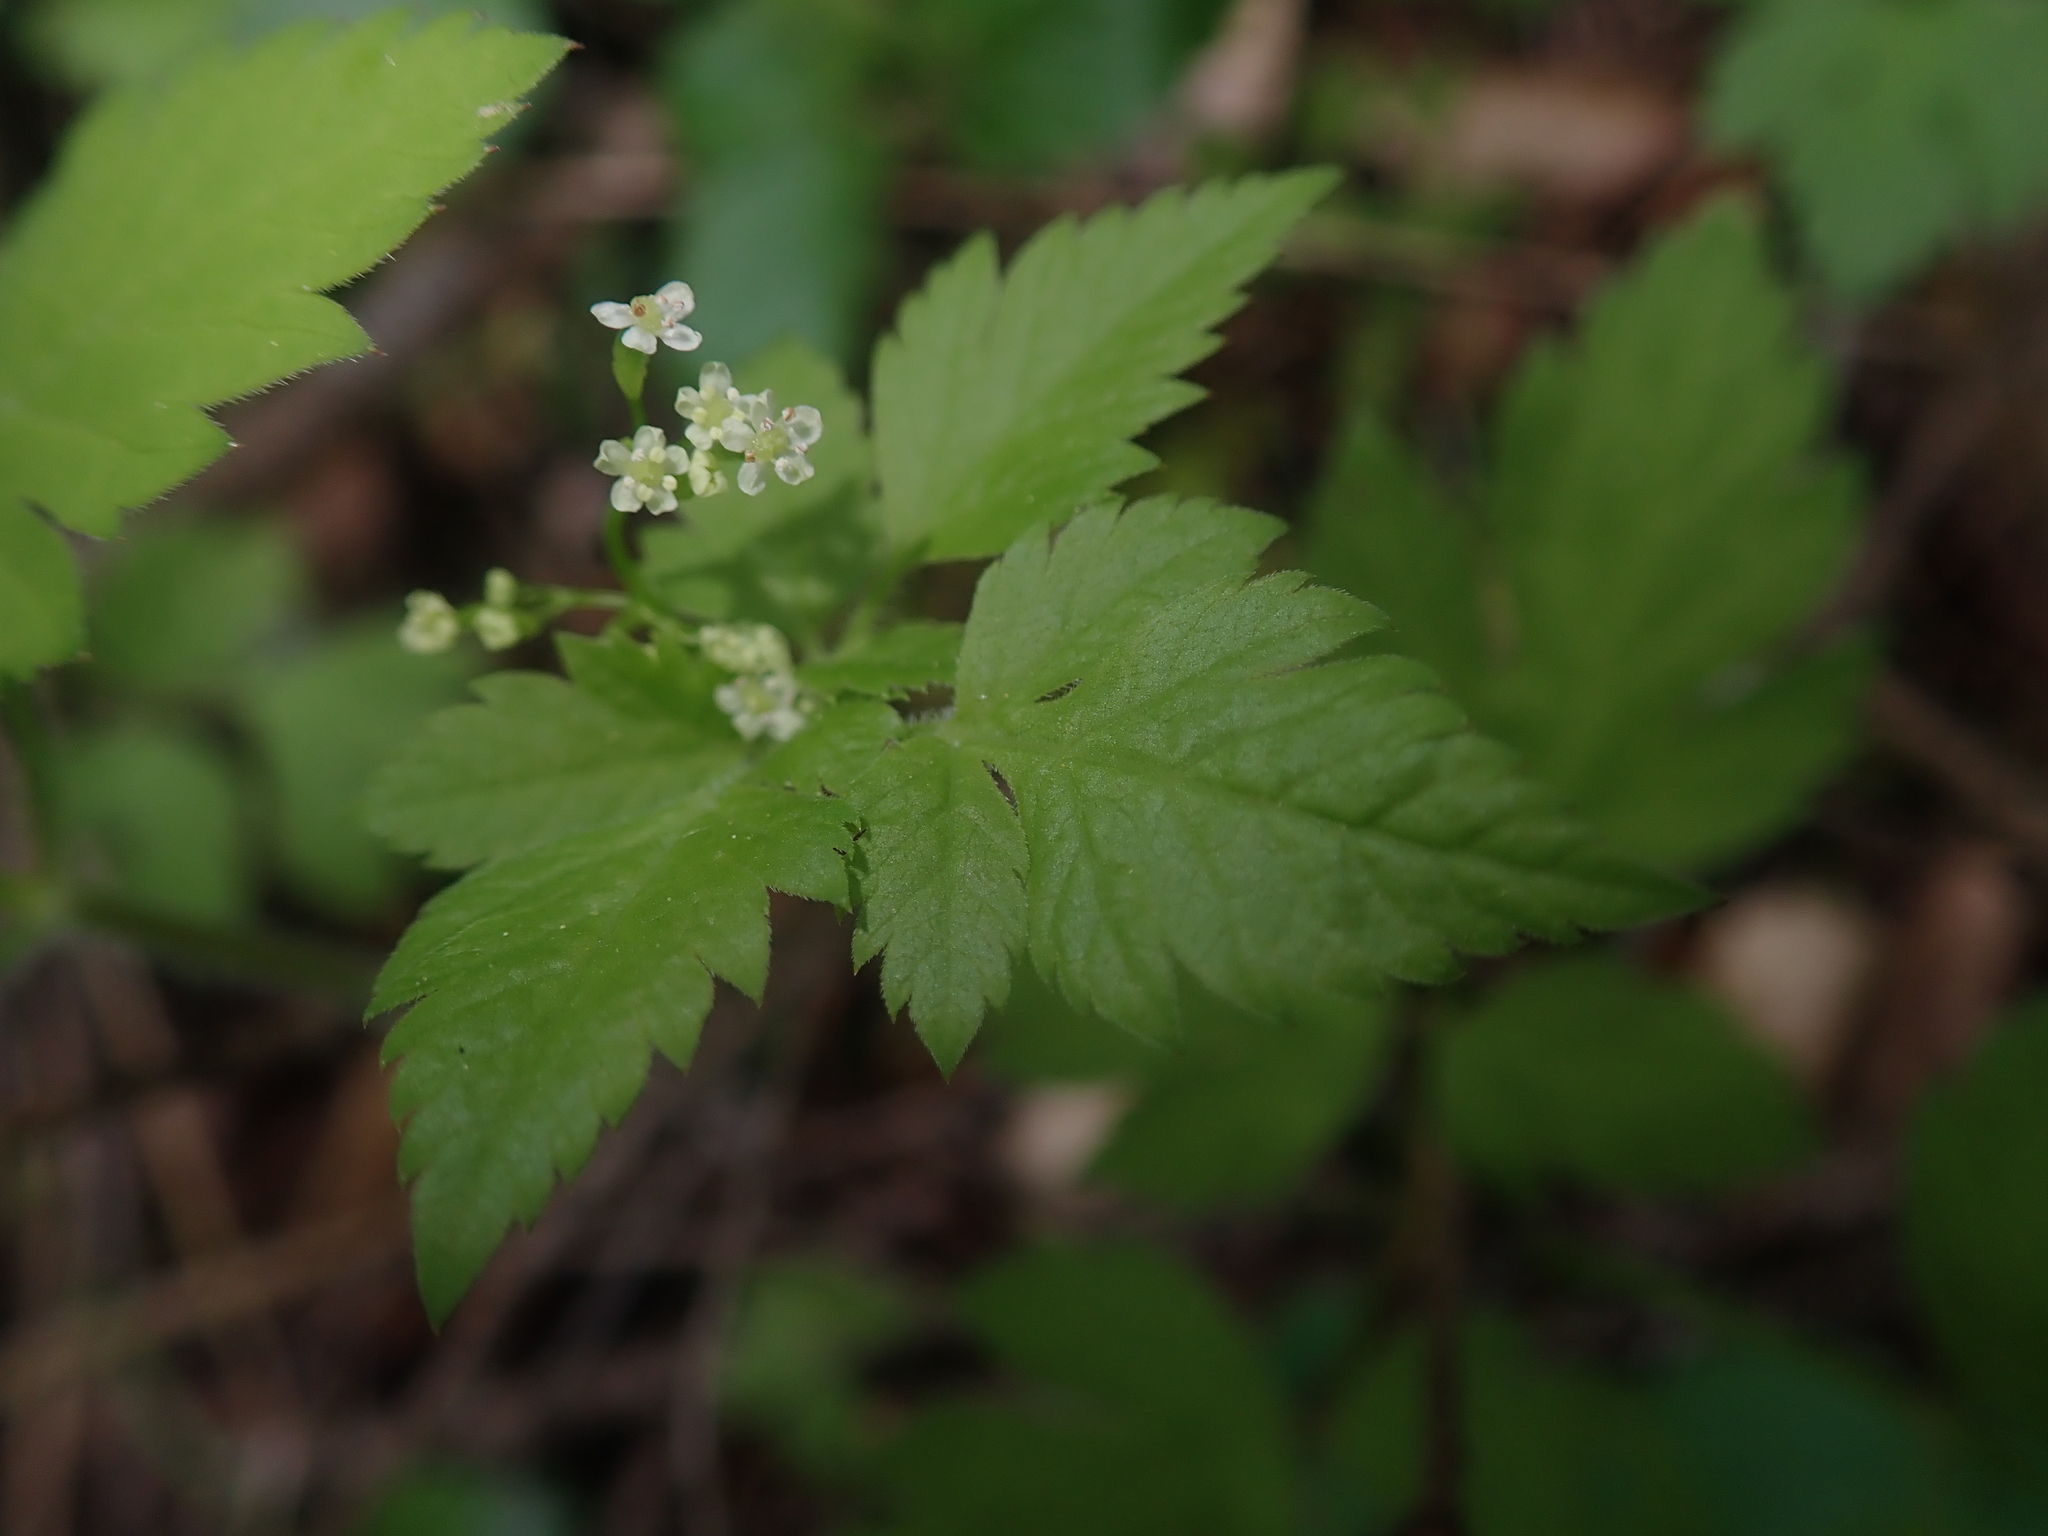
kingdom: Plantae
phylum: Tracheophyta
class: Magnoliopsida
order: Apiales
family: Apiaceae
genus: Osmorhiza
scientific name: Osmorhiza berteroi
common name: Mountain sweet cicely
